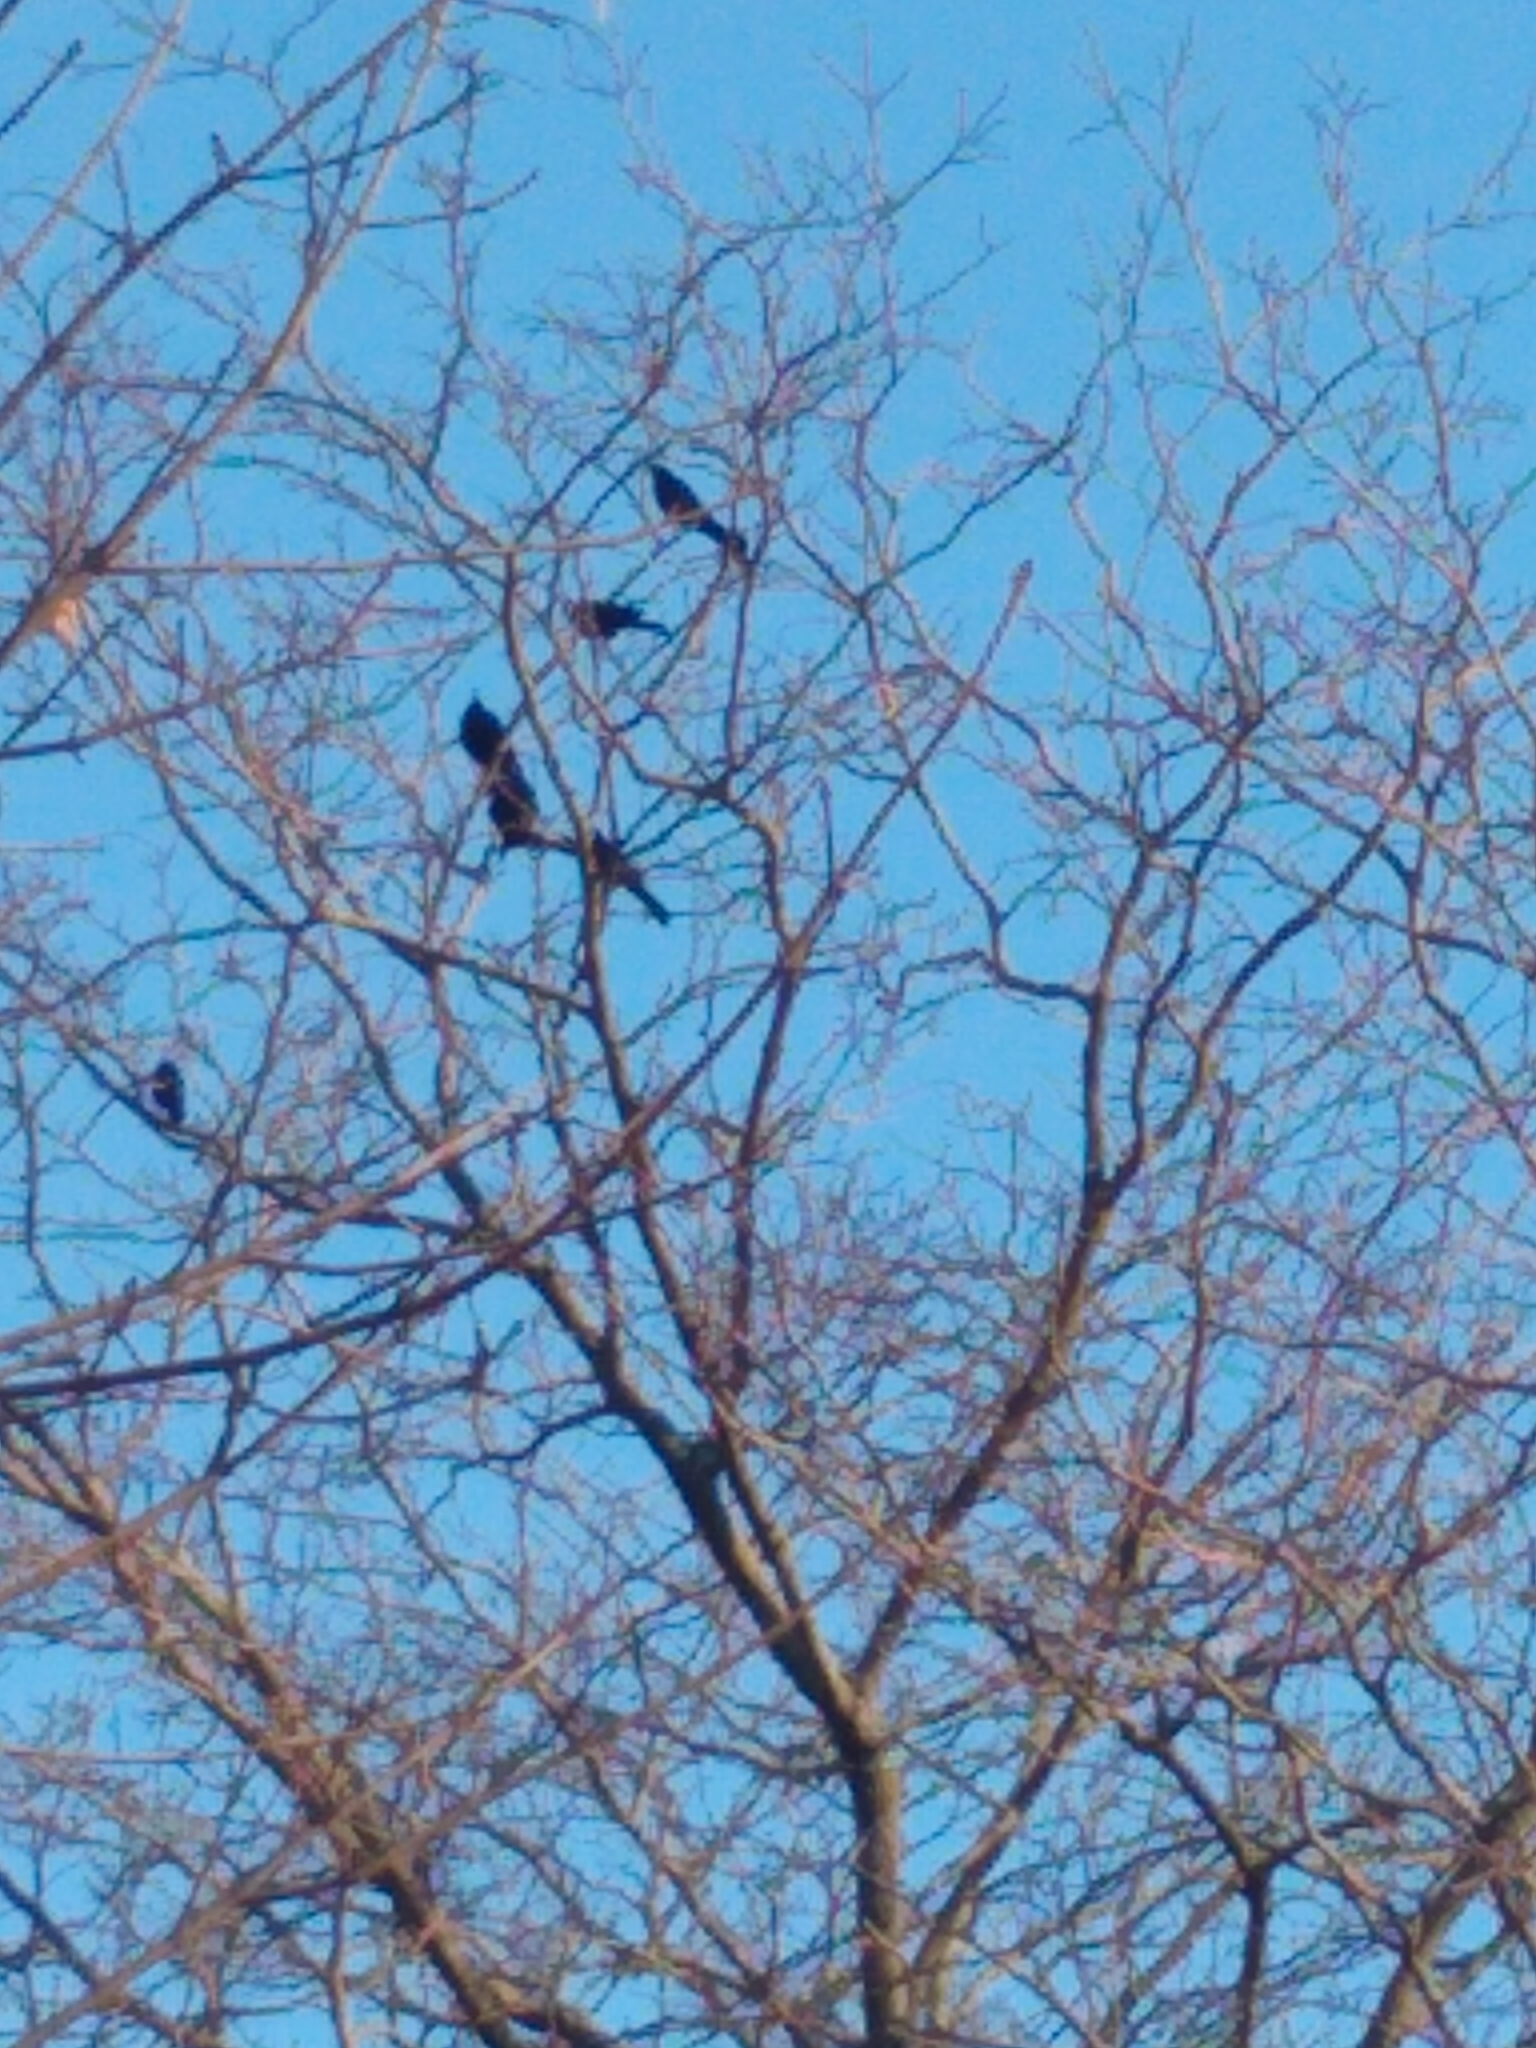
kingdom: Animalia
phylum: Chordata
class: Aves
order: Passeriformes
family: Icteridae
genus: Quiscalus
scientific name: Quiscalus quiscula
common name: Common grackle
